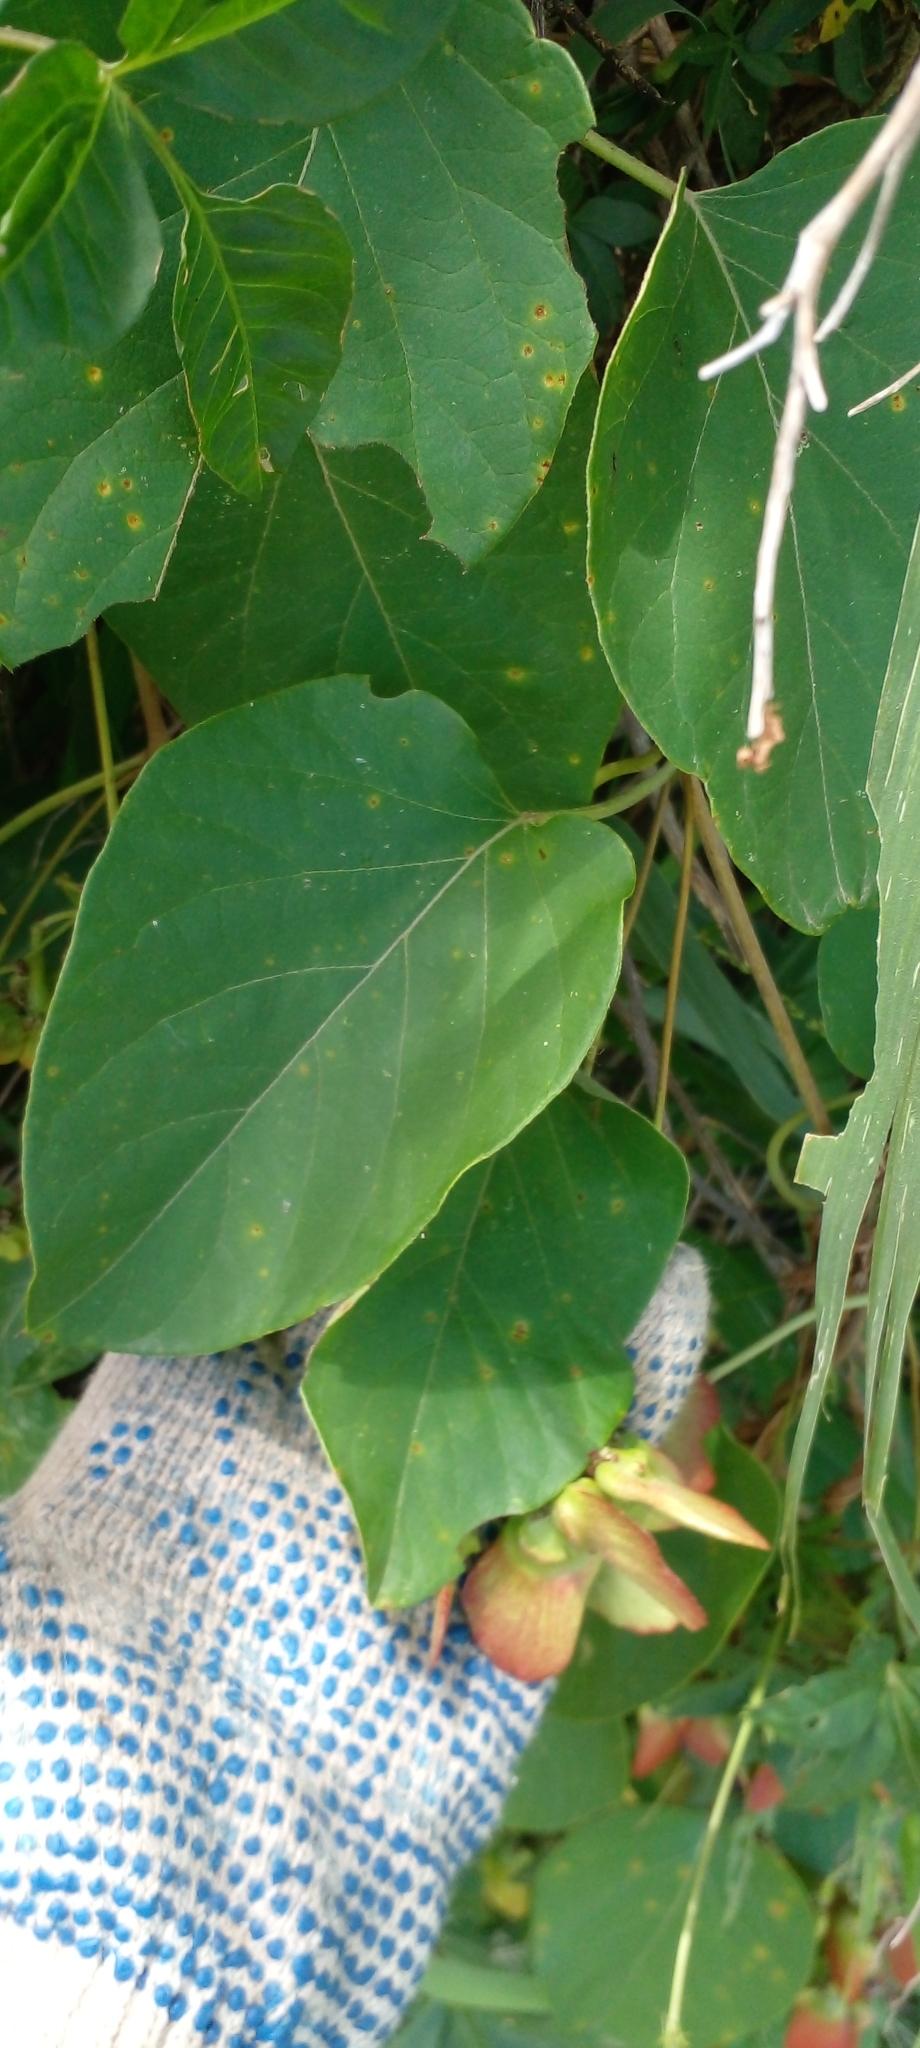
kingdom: Plantae
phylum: Tracheophyta
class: Magnoliopsida
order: Malpighiales
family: Malpighiaceae
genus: Stigmaphyllon
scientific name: Stigmaphyllon bonariense
